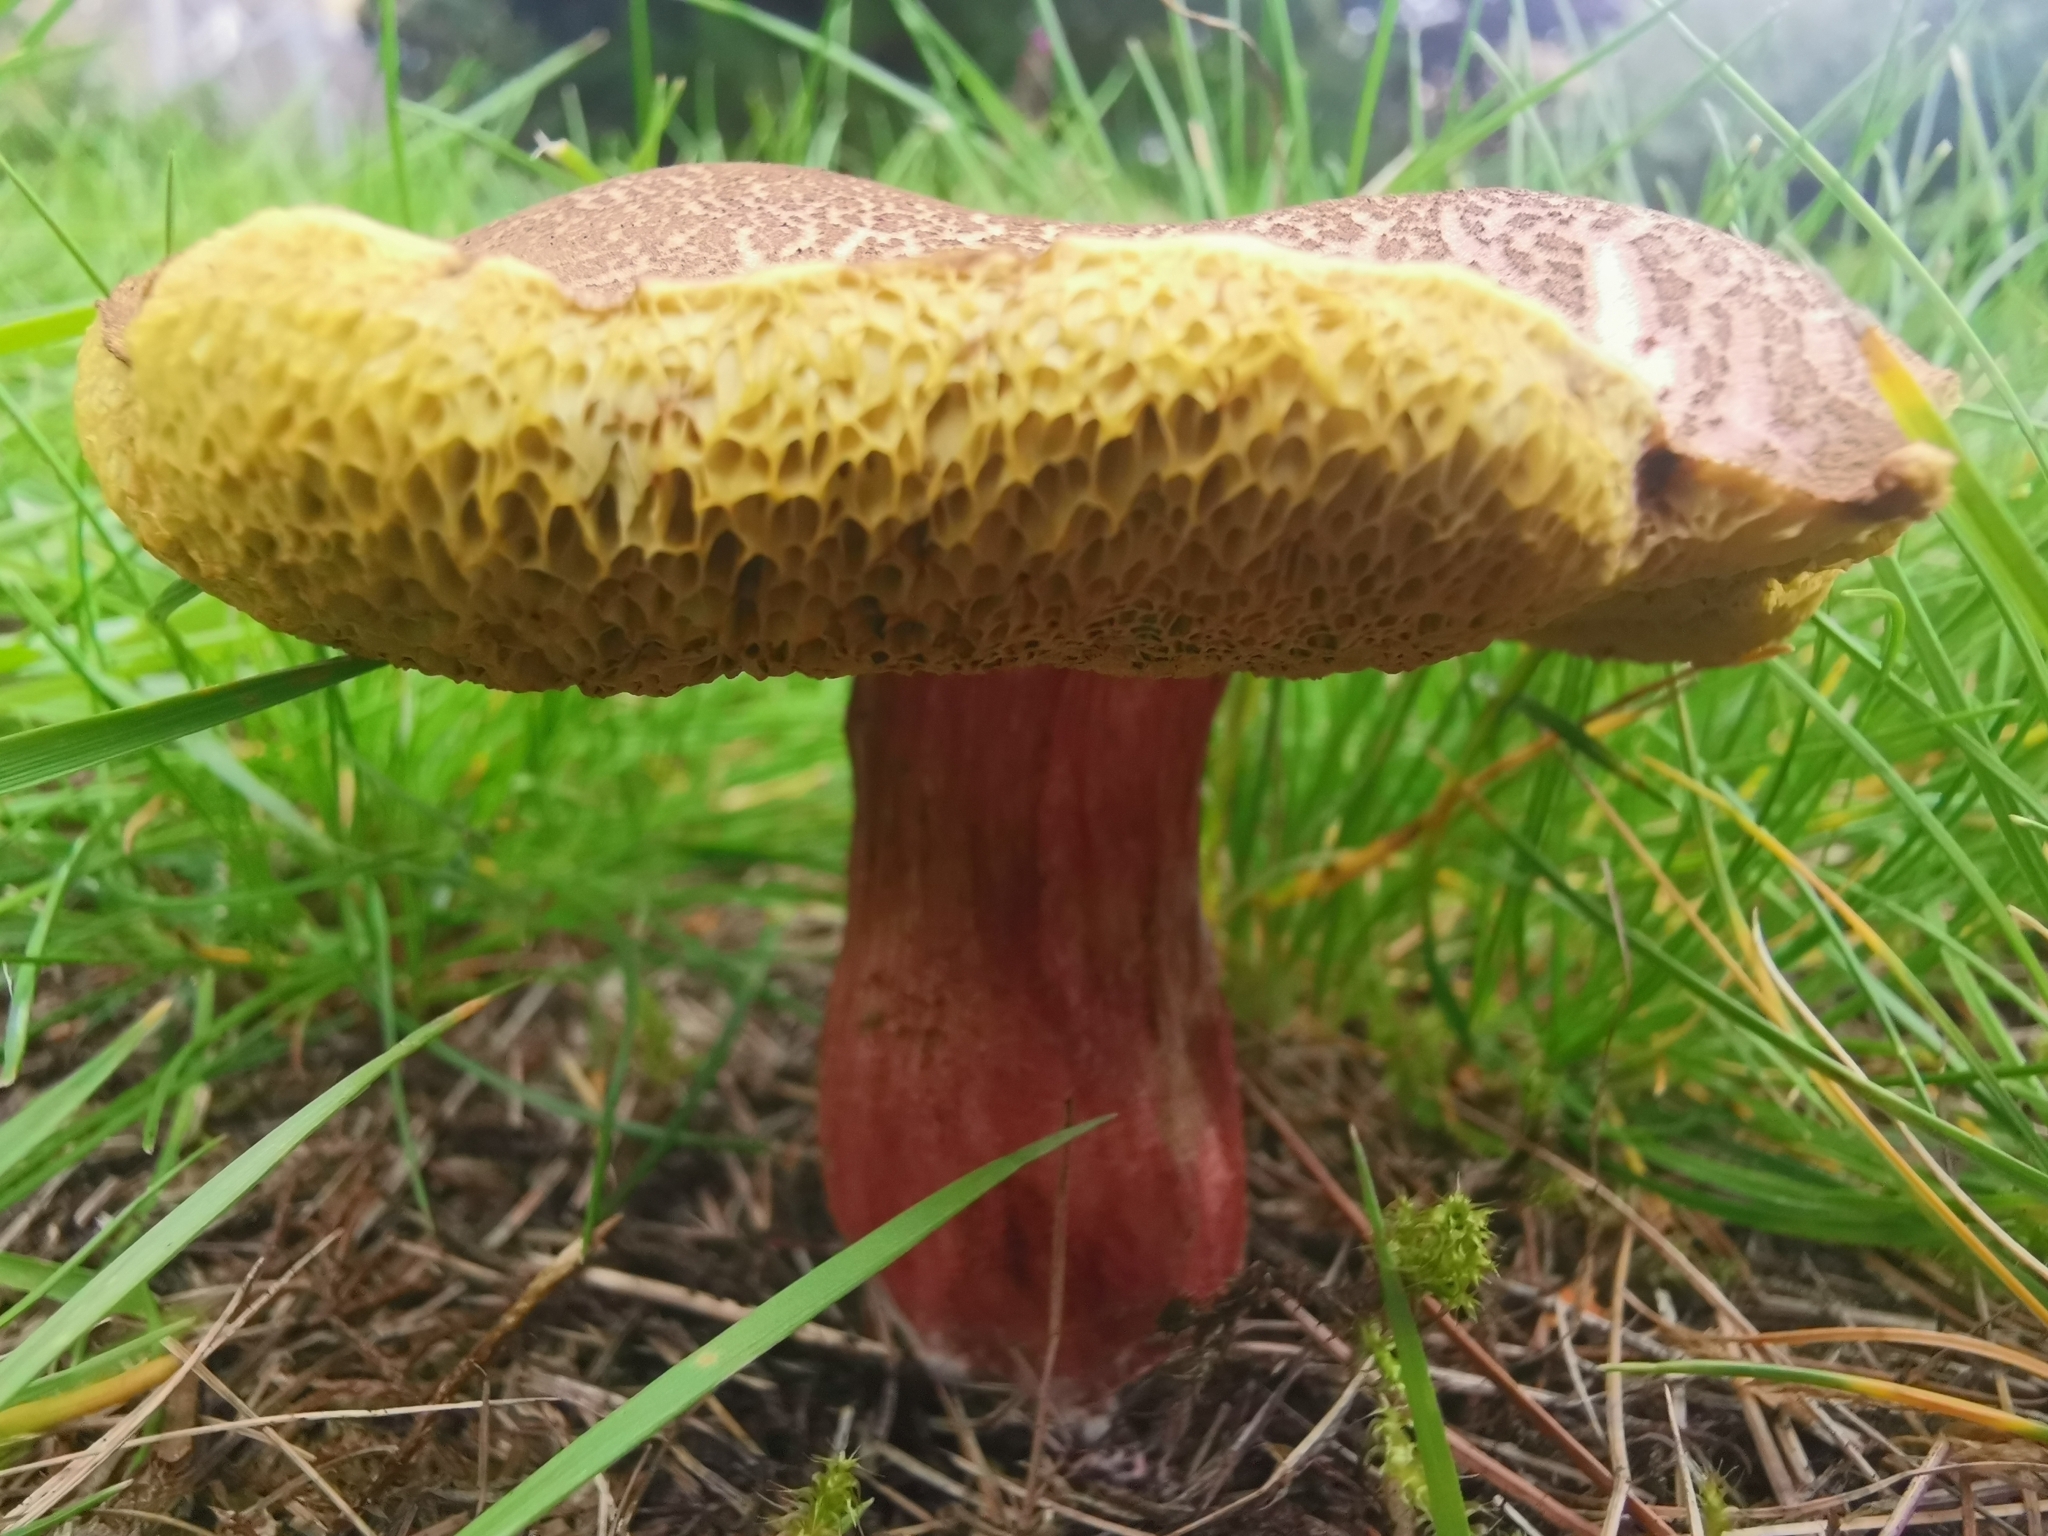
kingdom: Fungi
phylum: Basidiomycota
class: Agaricomycetes
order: Boletales
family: Boletaceae
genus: Xerocomellus
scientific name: Xerocomellus chrysenteron
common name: Red-cracking bolete
